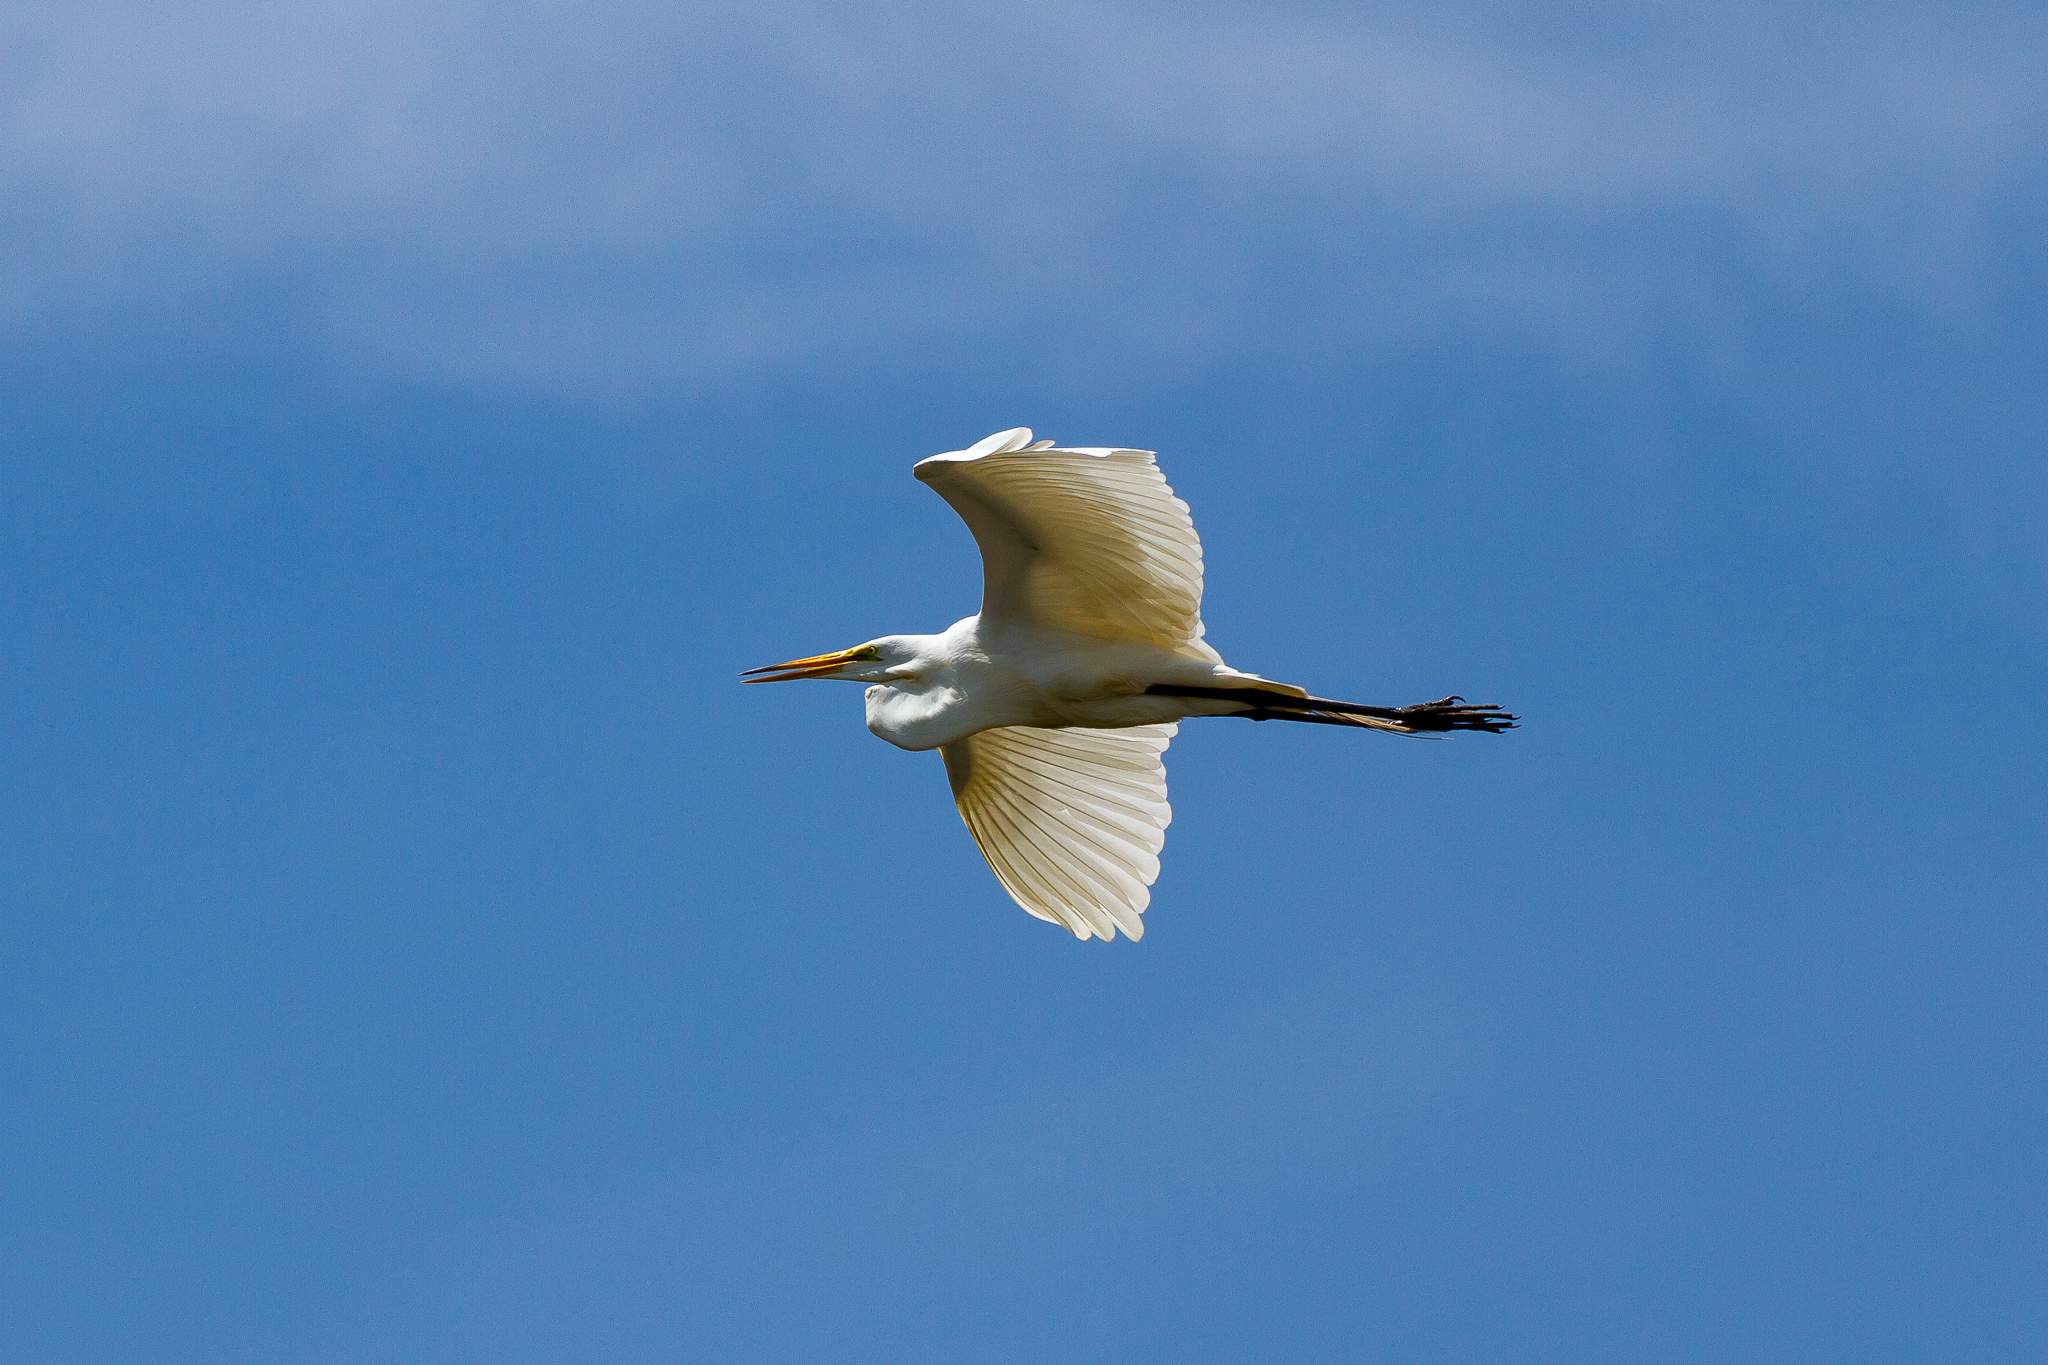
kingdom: Animalia
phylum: Chordata
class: Aves
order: Pelecaniformes
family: Ardeidae
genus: Ardea
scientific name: Ardea alba
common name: Great egret
